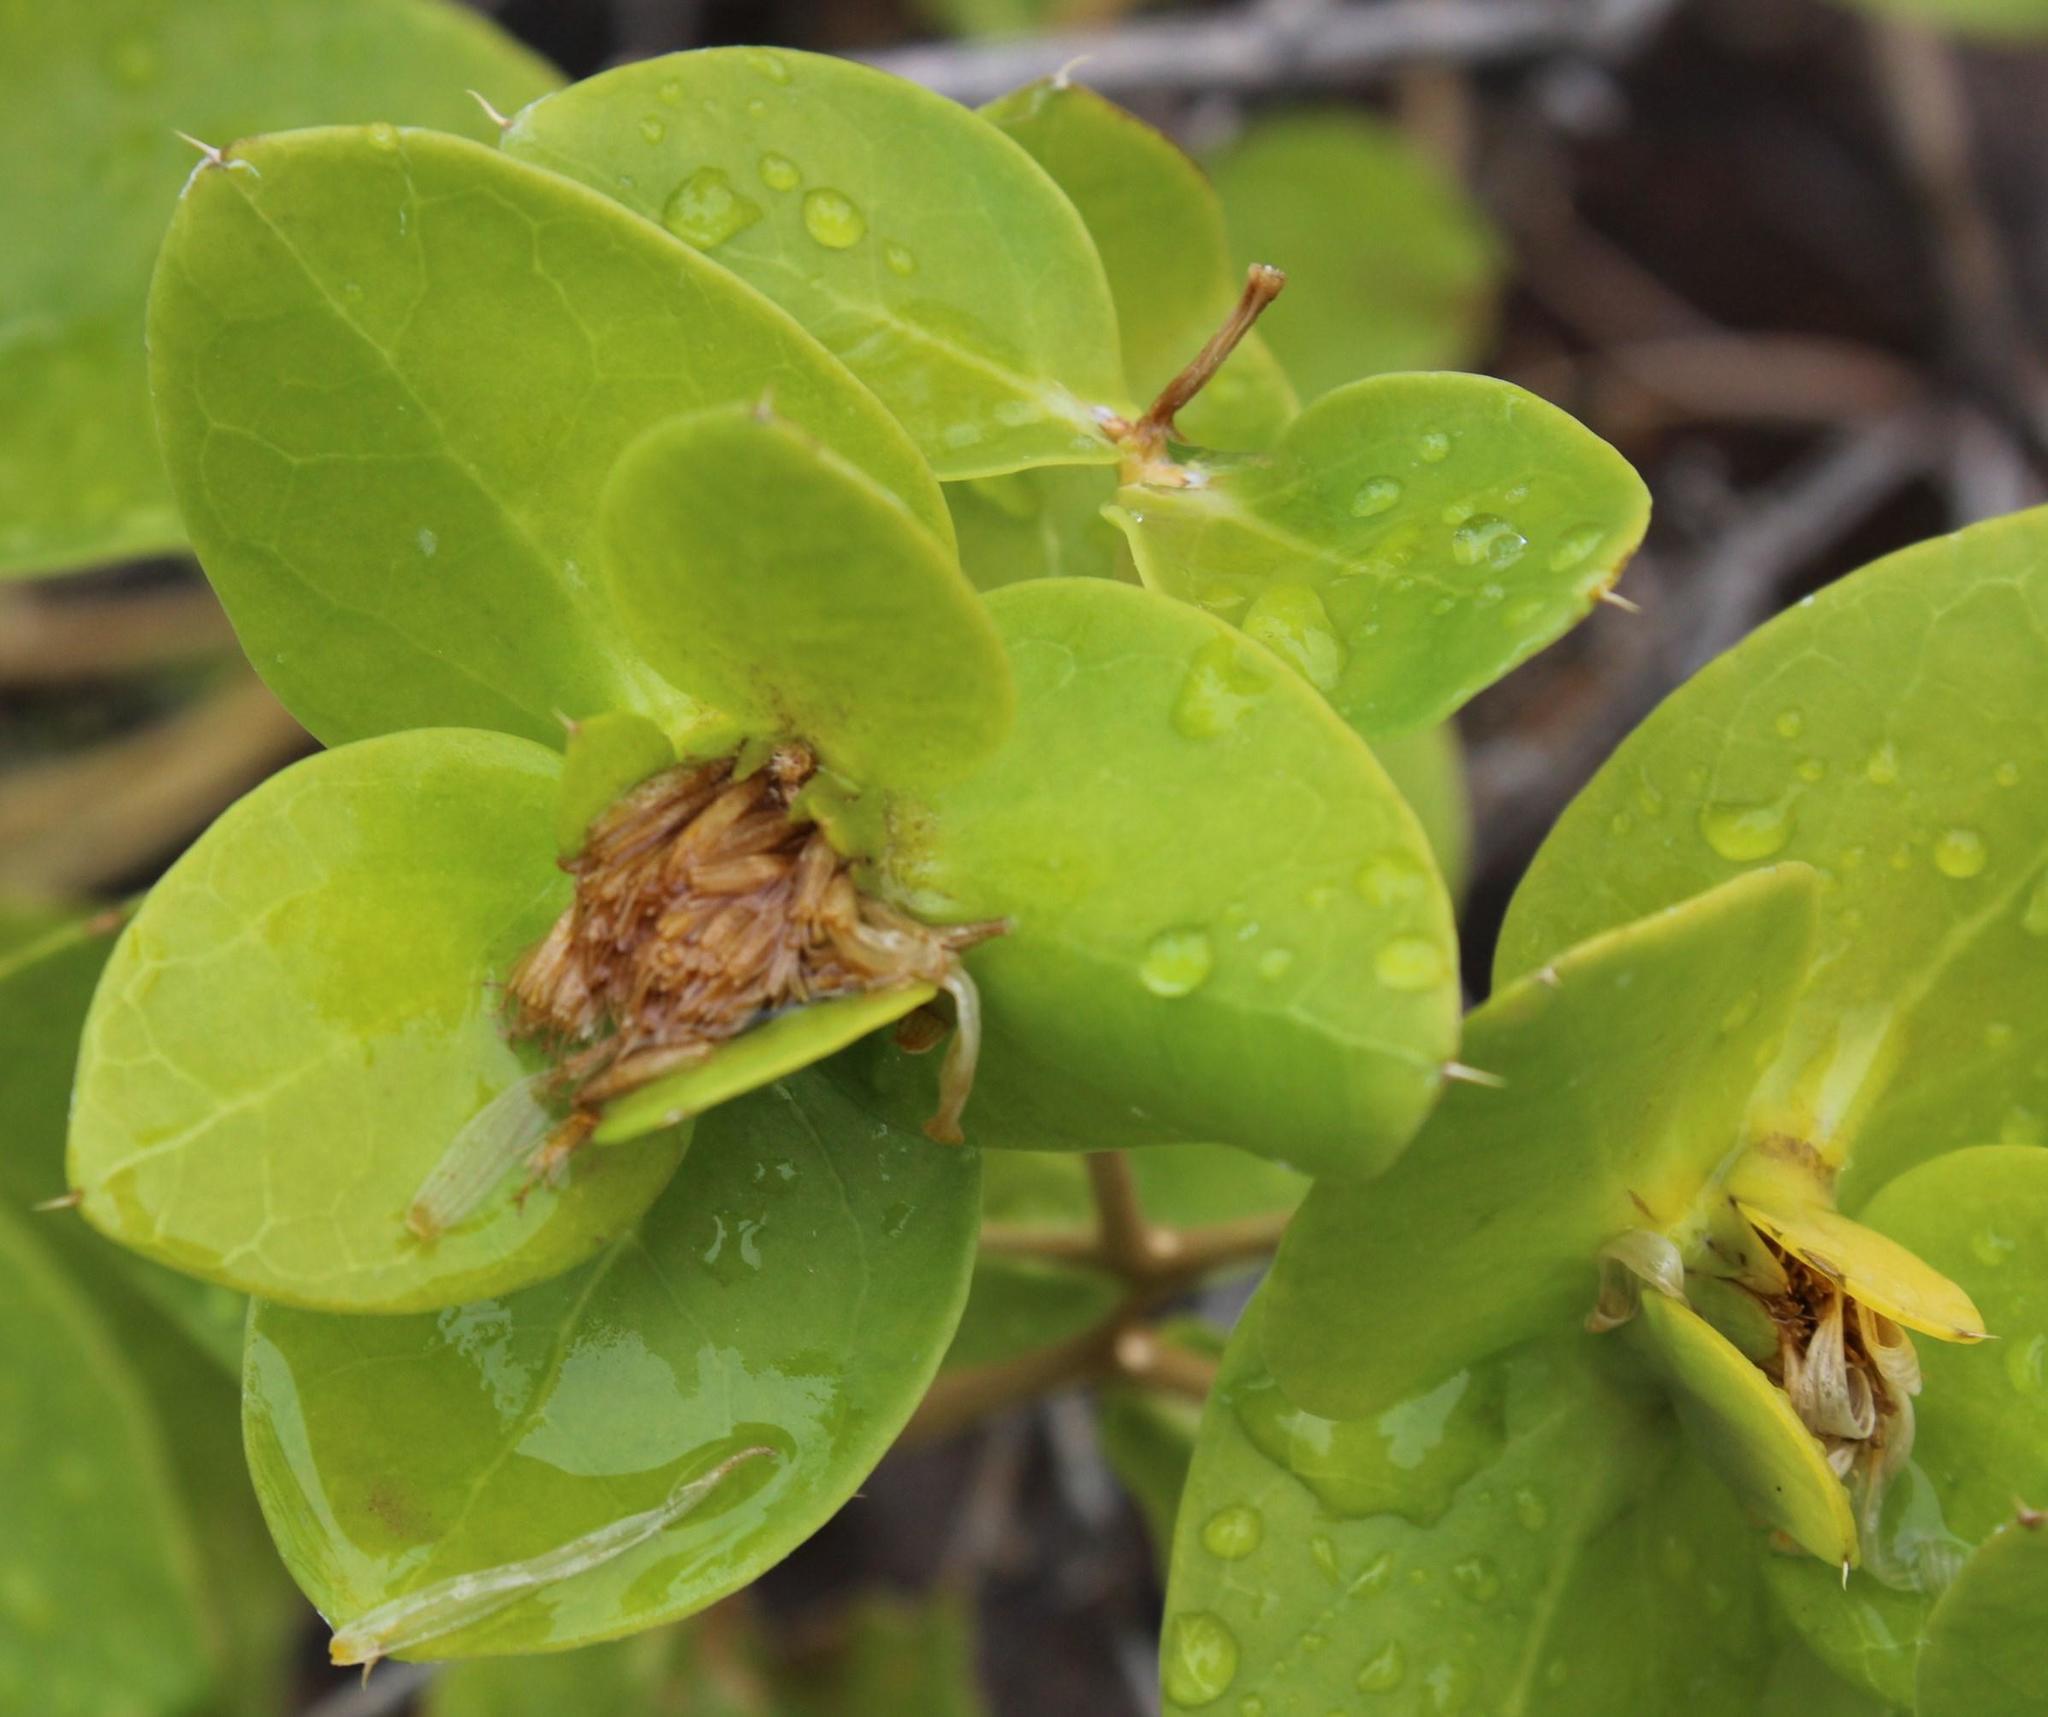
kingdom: Plantae
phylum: Tracheophyta
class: Magnoliopsida
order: Asterales
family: Asteraceae
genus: Didelta
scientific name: Didelta spinosa
